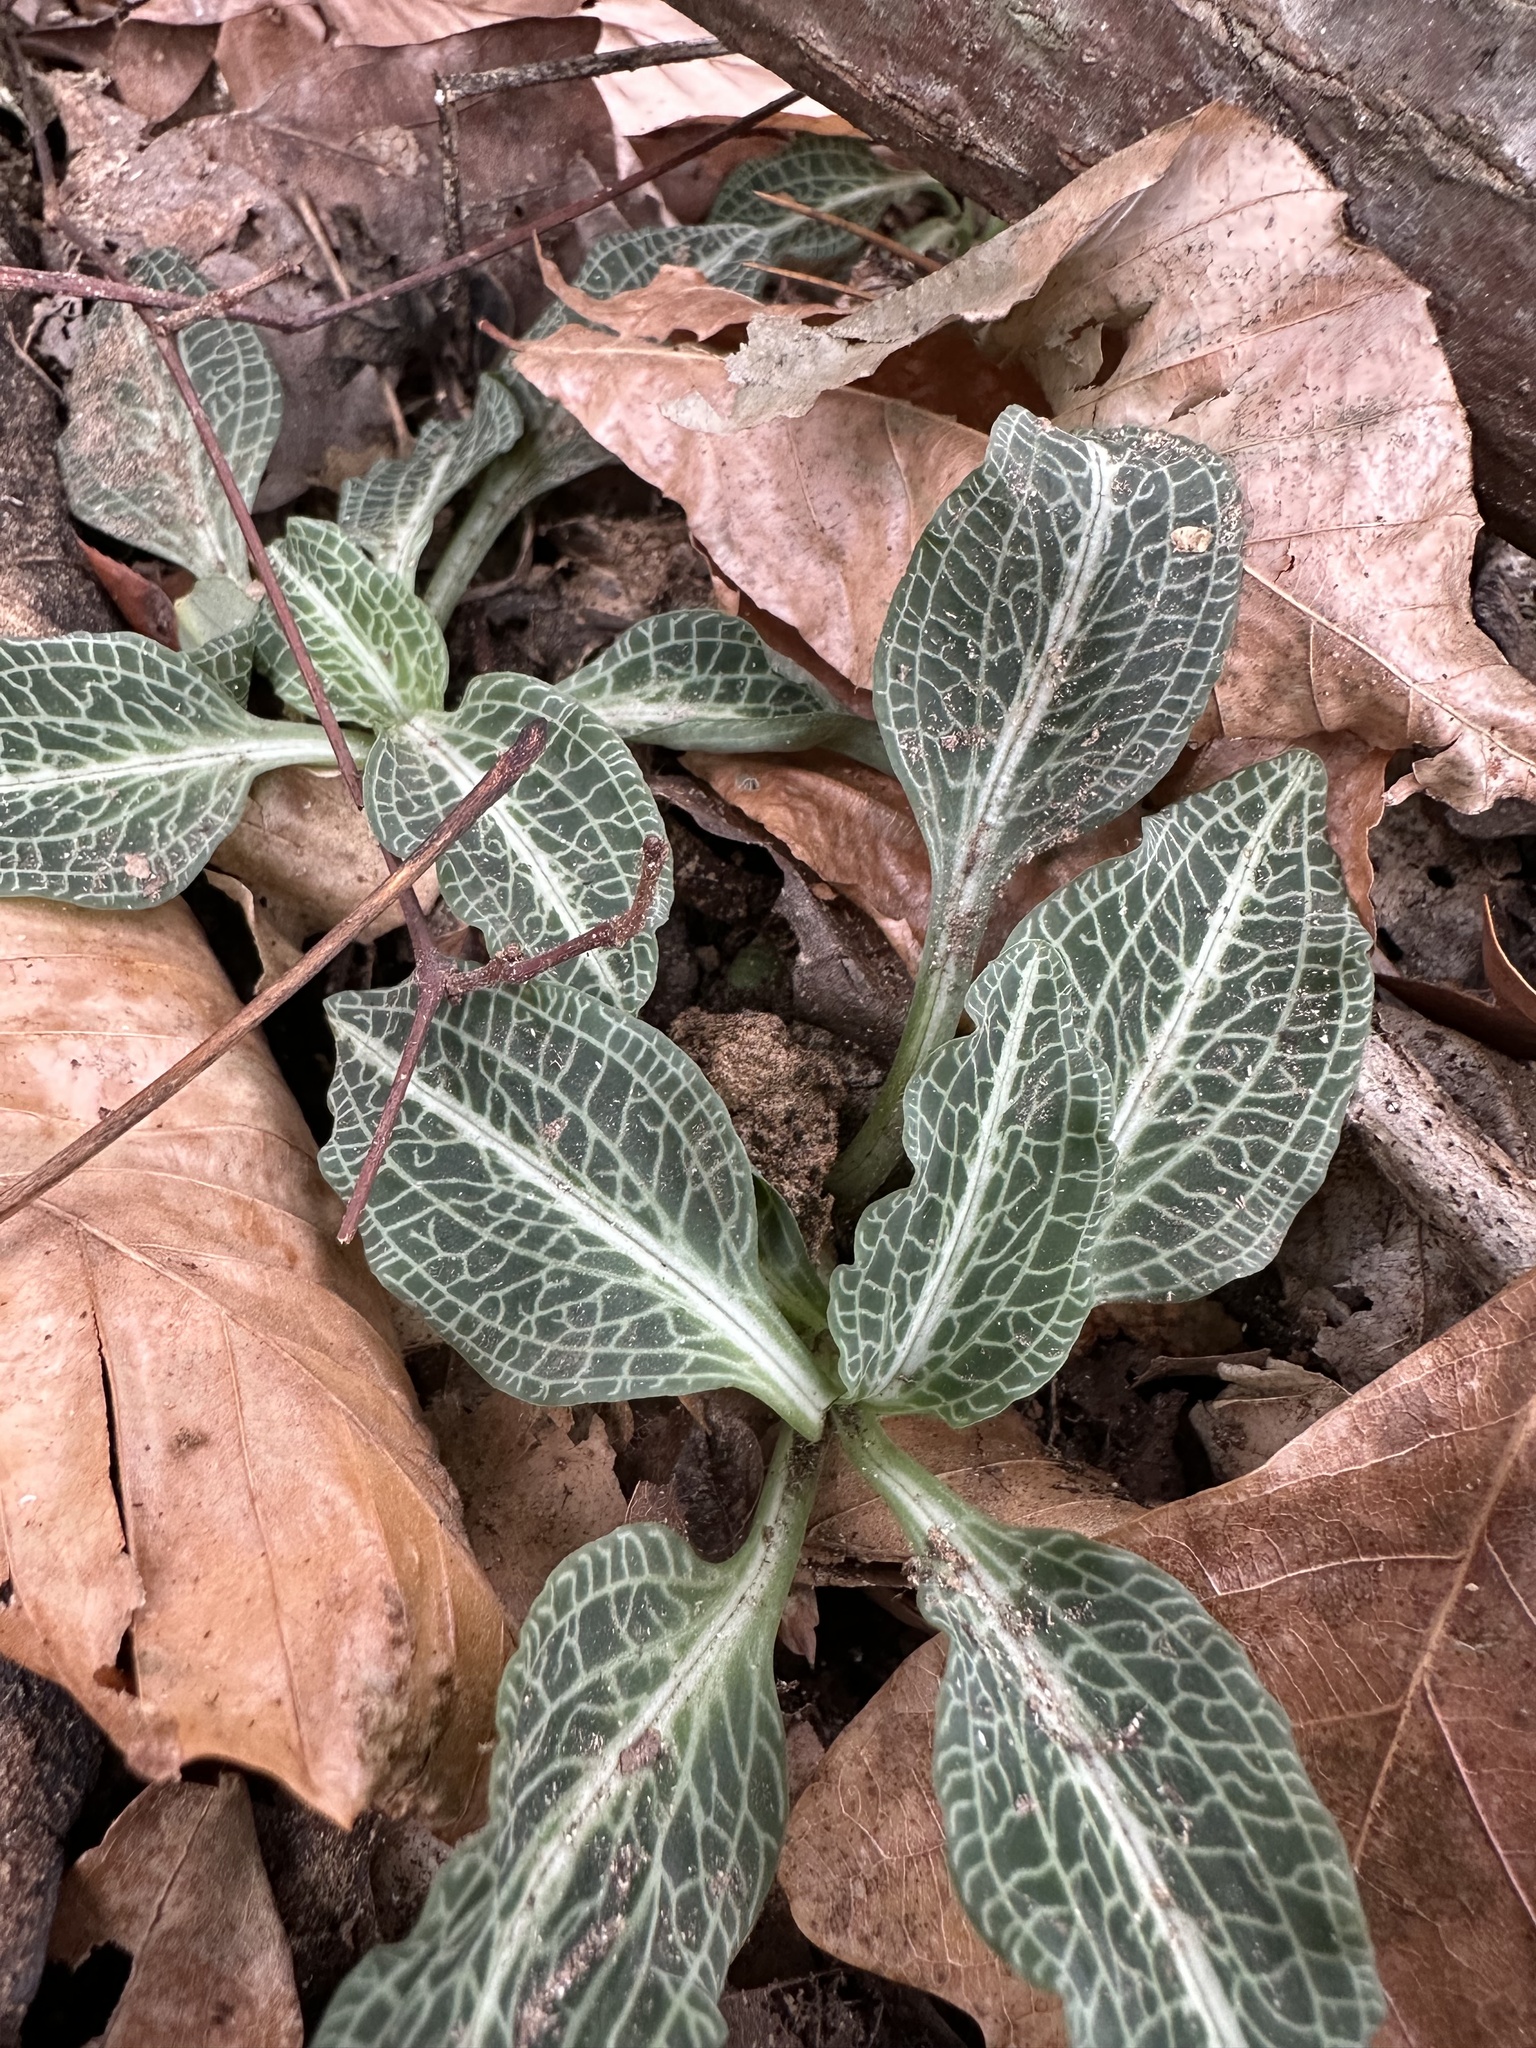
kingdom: Plantae
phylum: Tracheophyta
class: Liliopsida
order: Asparagales
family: Orchidaceae
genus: Goodyera
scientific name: Goodyera pubescens
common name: Downy rattlesnake-plantain
